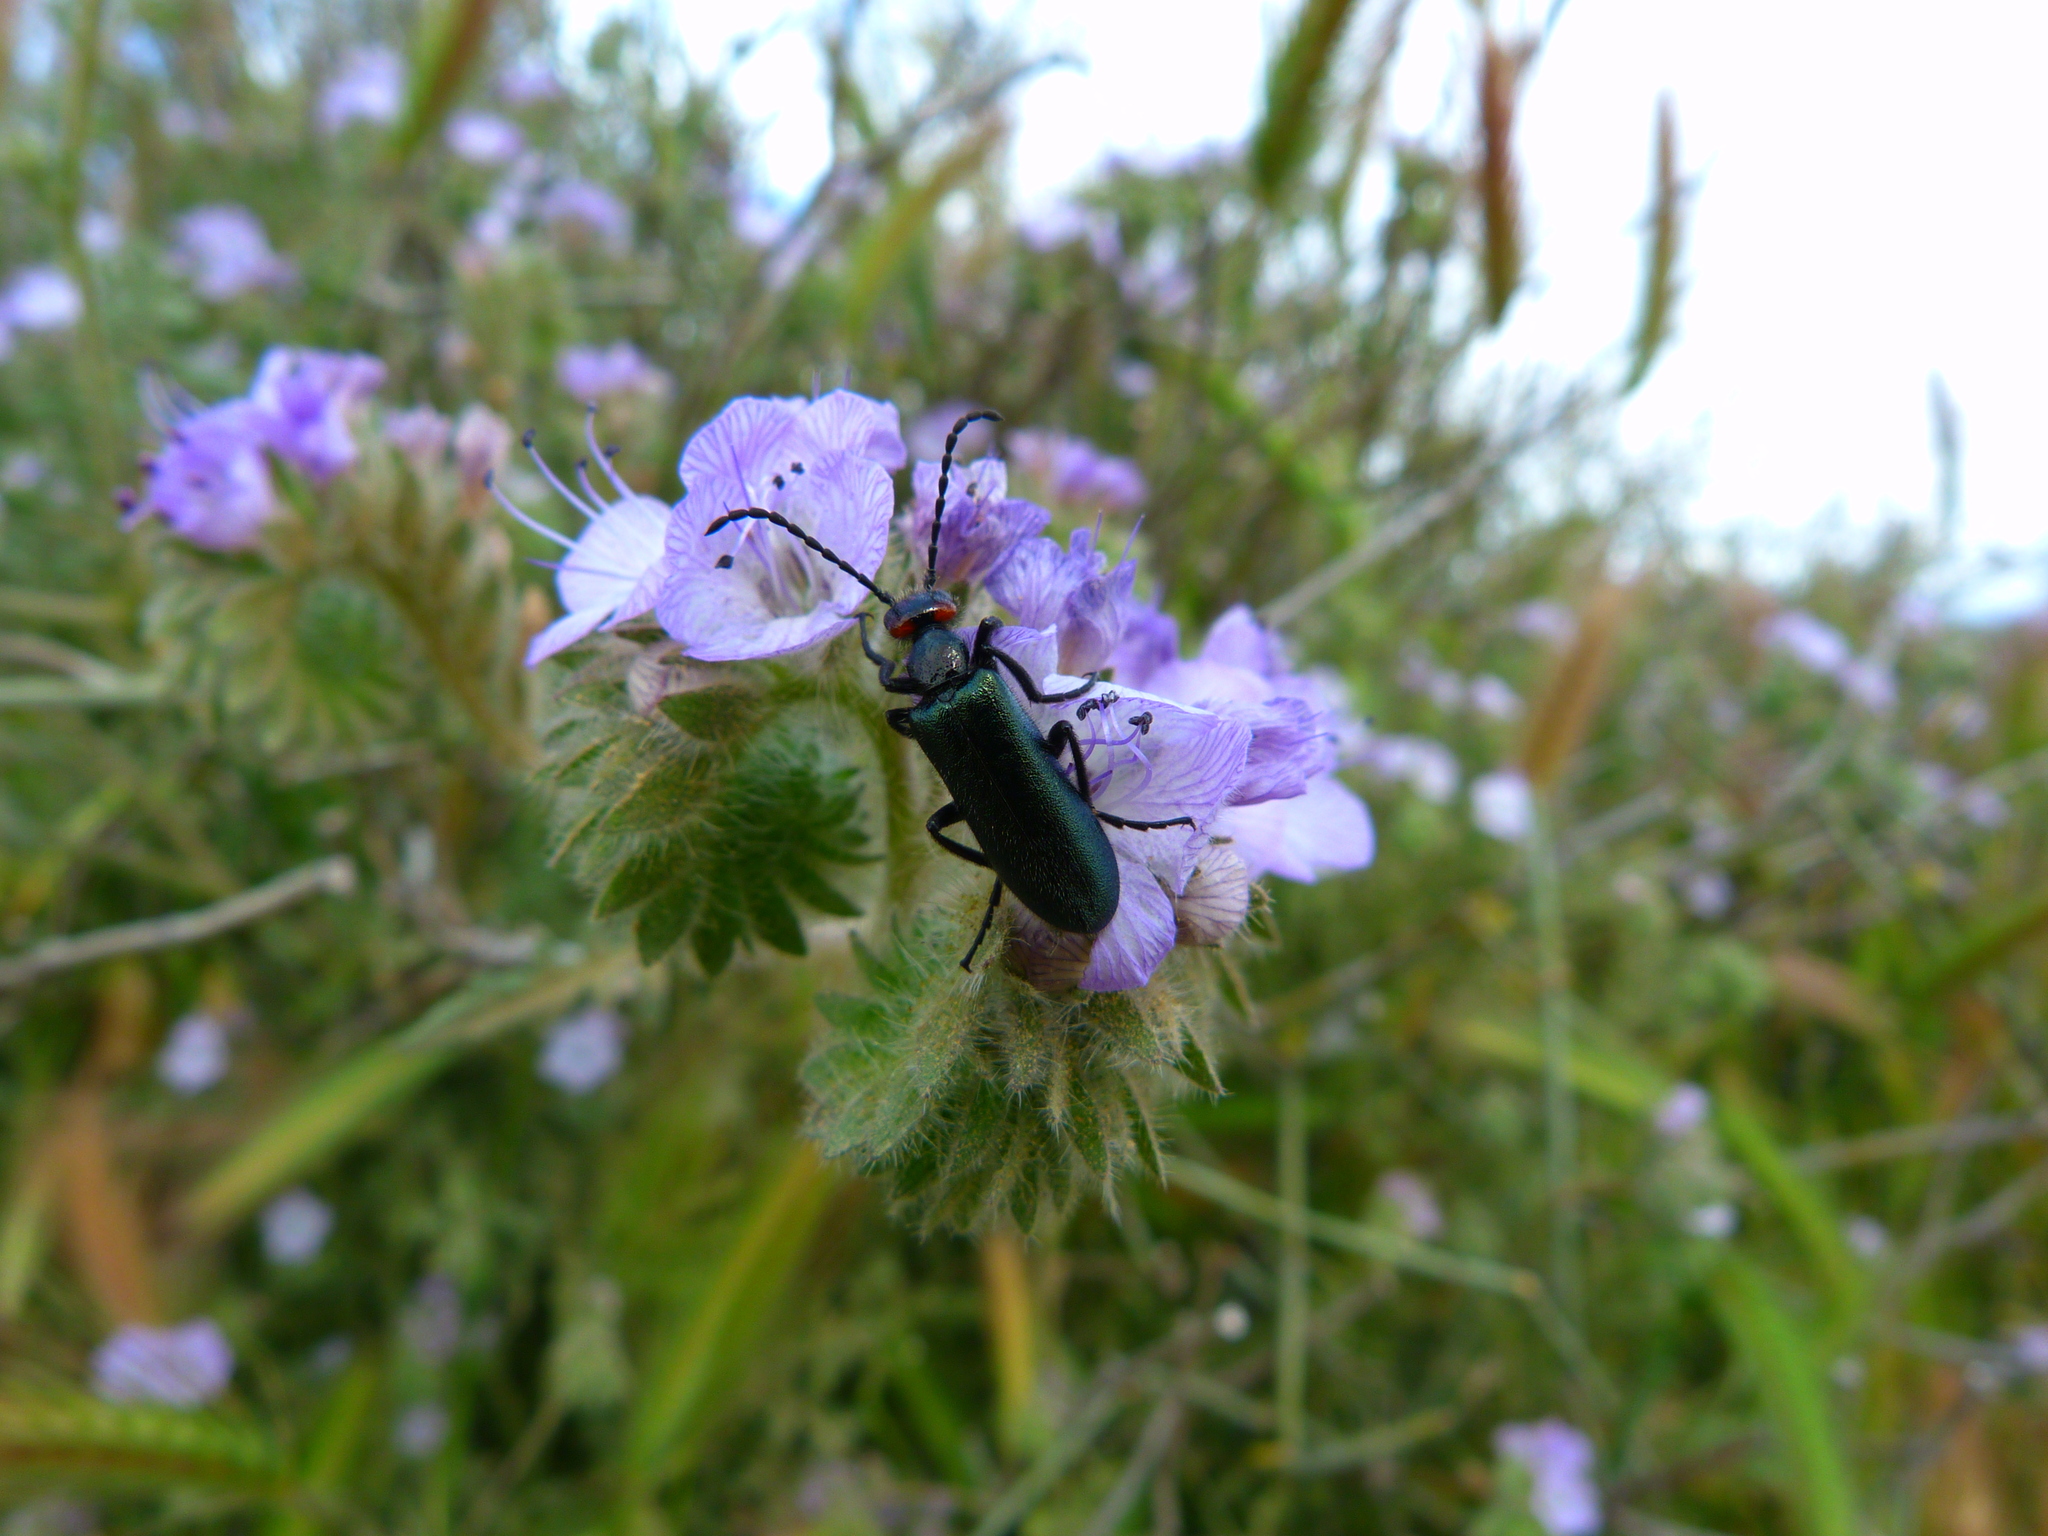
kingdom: Animalia
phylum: Arthropoda
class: Insecta
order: Coleoptera
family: Meloidae
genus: Lytta
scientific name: Lytta auriculata
